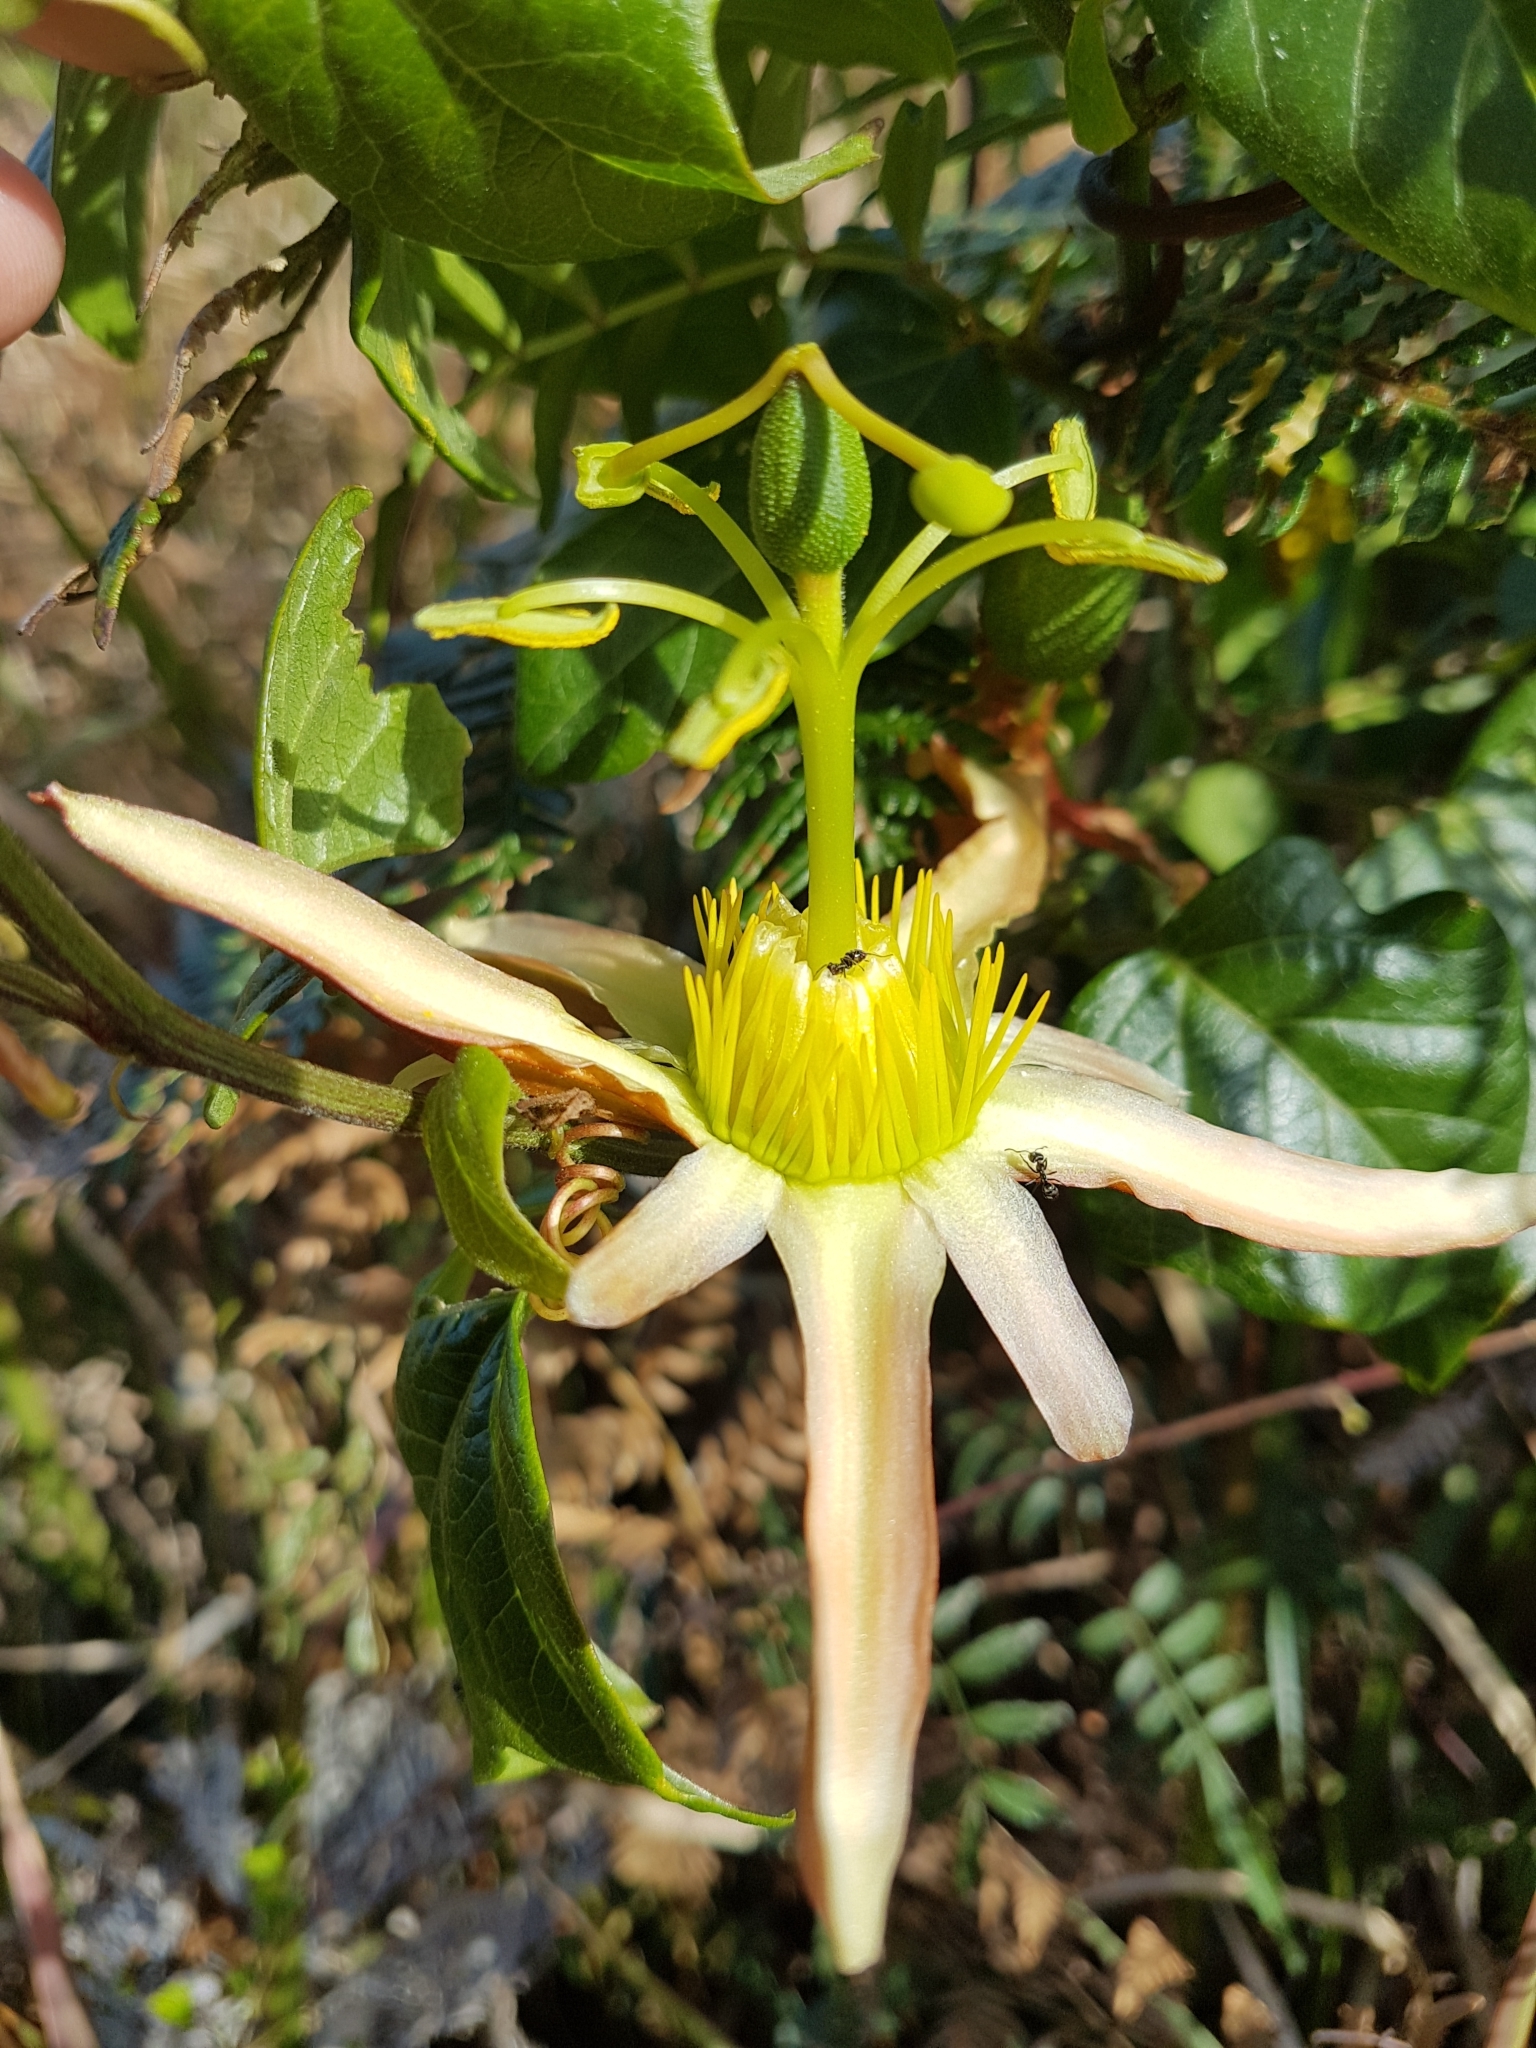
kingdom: Plantae
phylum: Tracheophyta
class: Magnoliopsida
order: Malpighiales
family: Passifloraceae
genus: Passiflora
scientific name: Passiflora herbertiana
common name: Yellow passionflower
